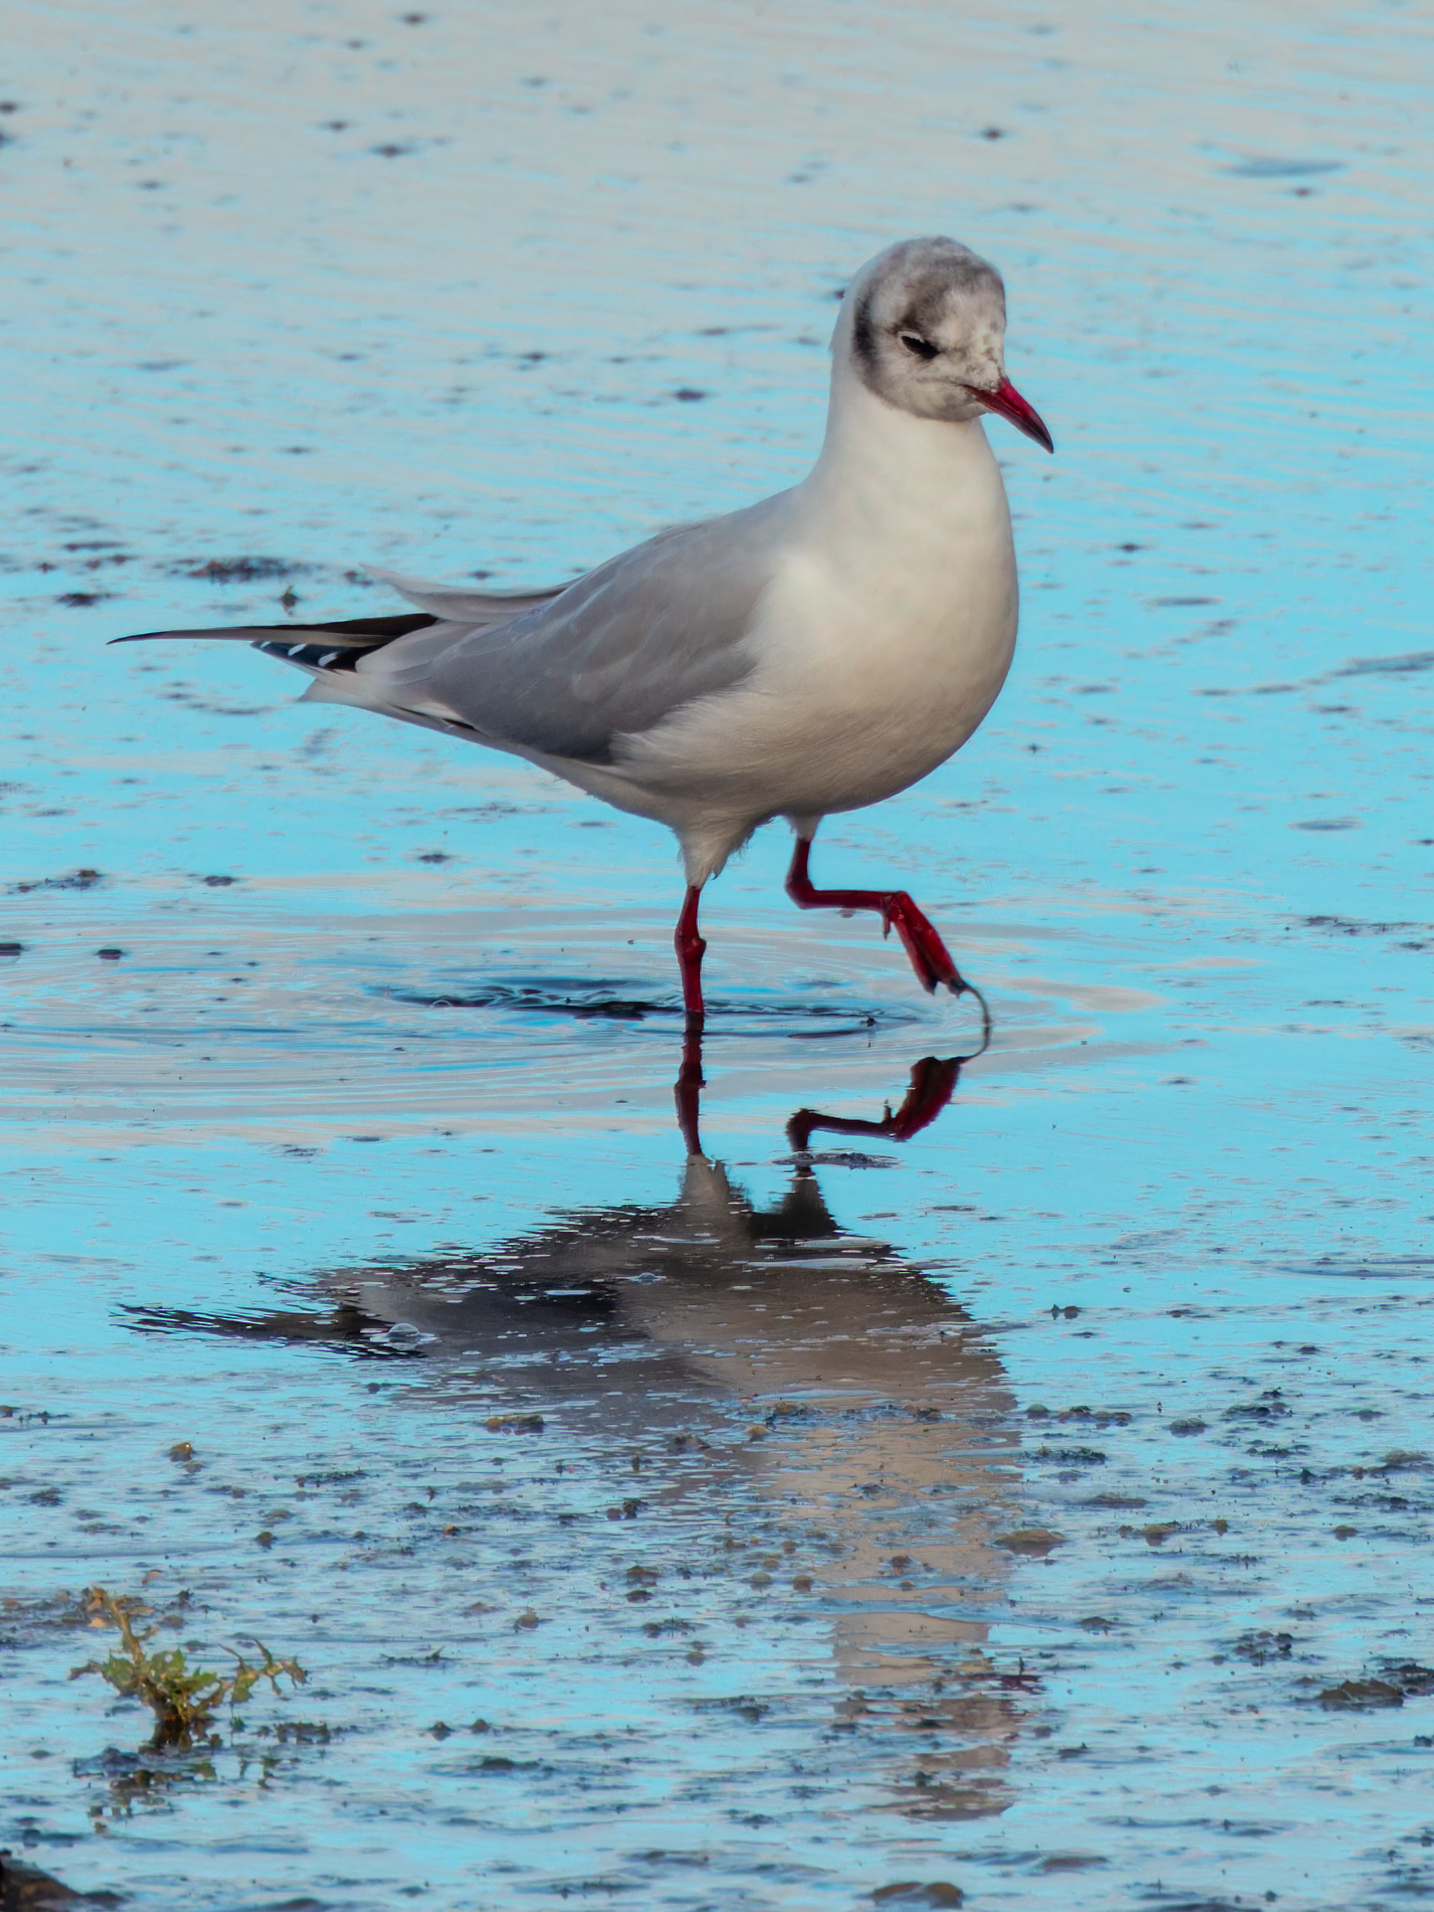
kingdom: Animalia
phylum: Chordata
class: Aves
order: Charadriiformes
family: Laridae
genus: Chroicocephalus
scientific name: Chroicocephalus ridibundus
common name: Black-headed gull
